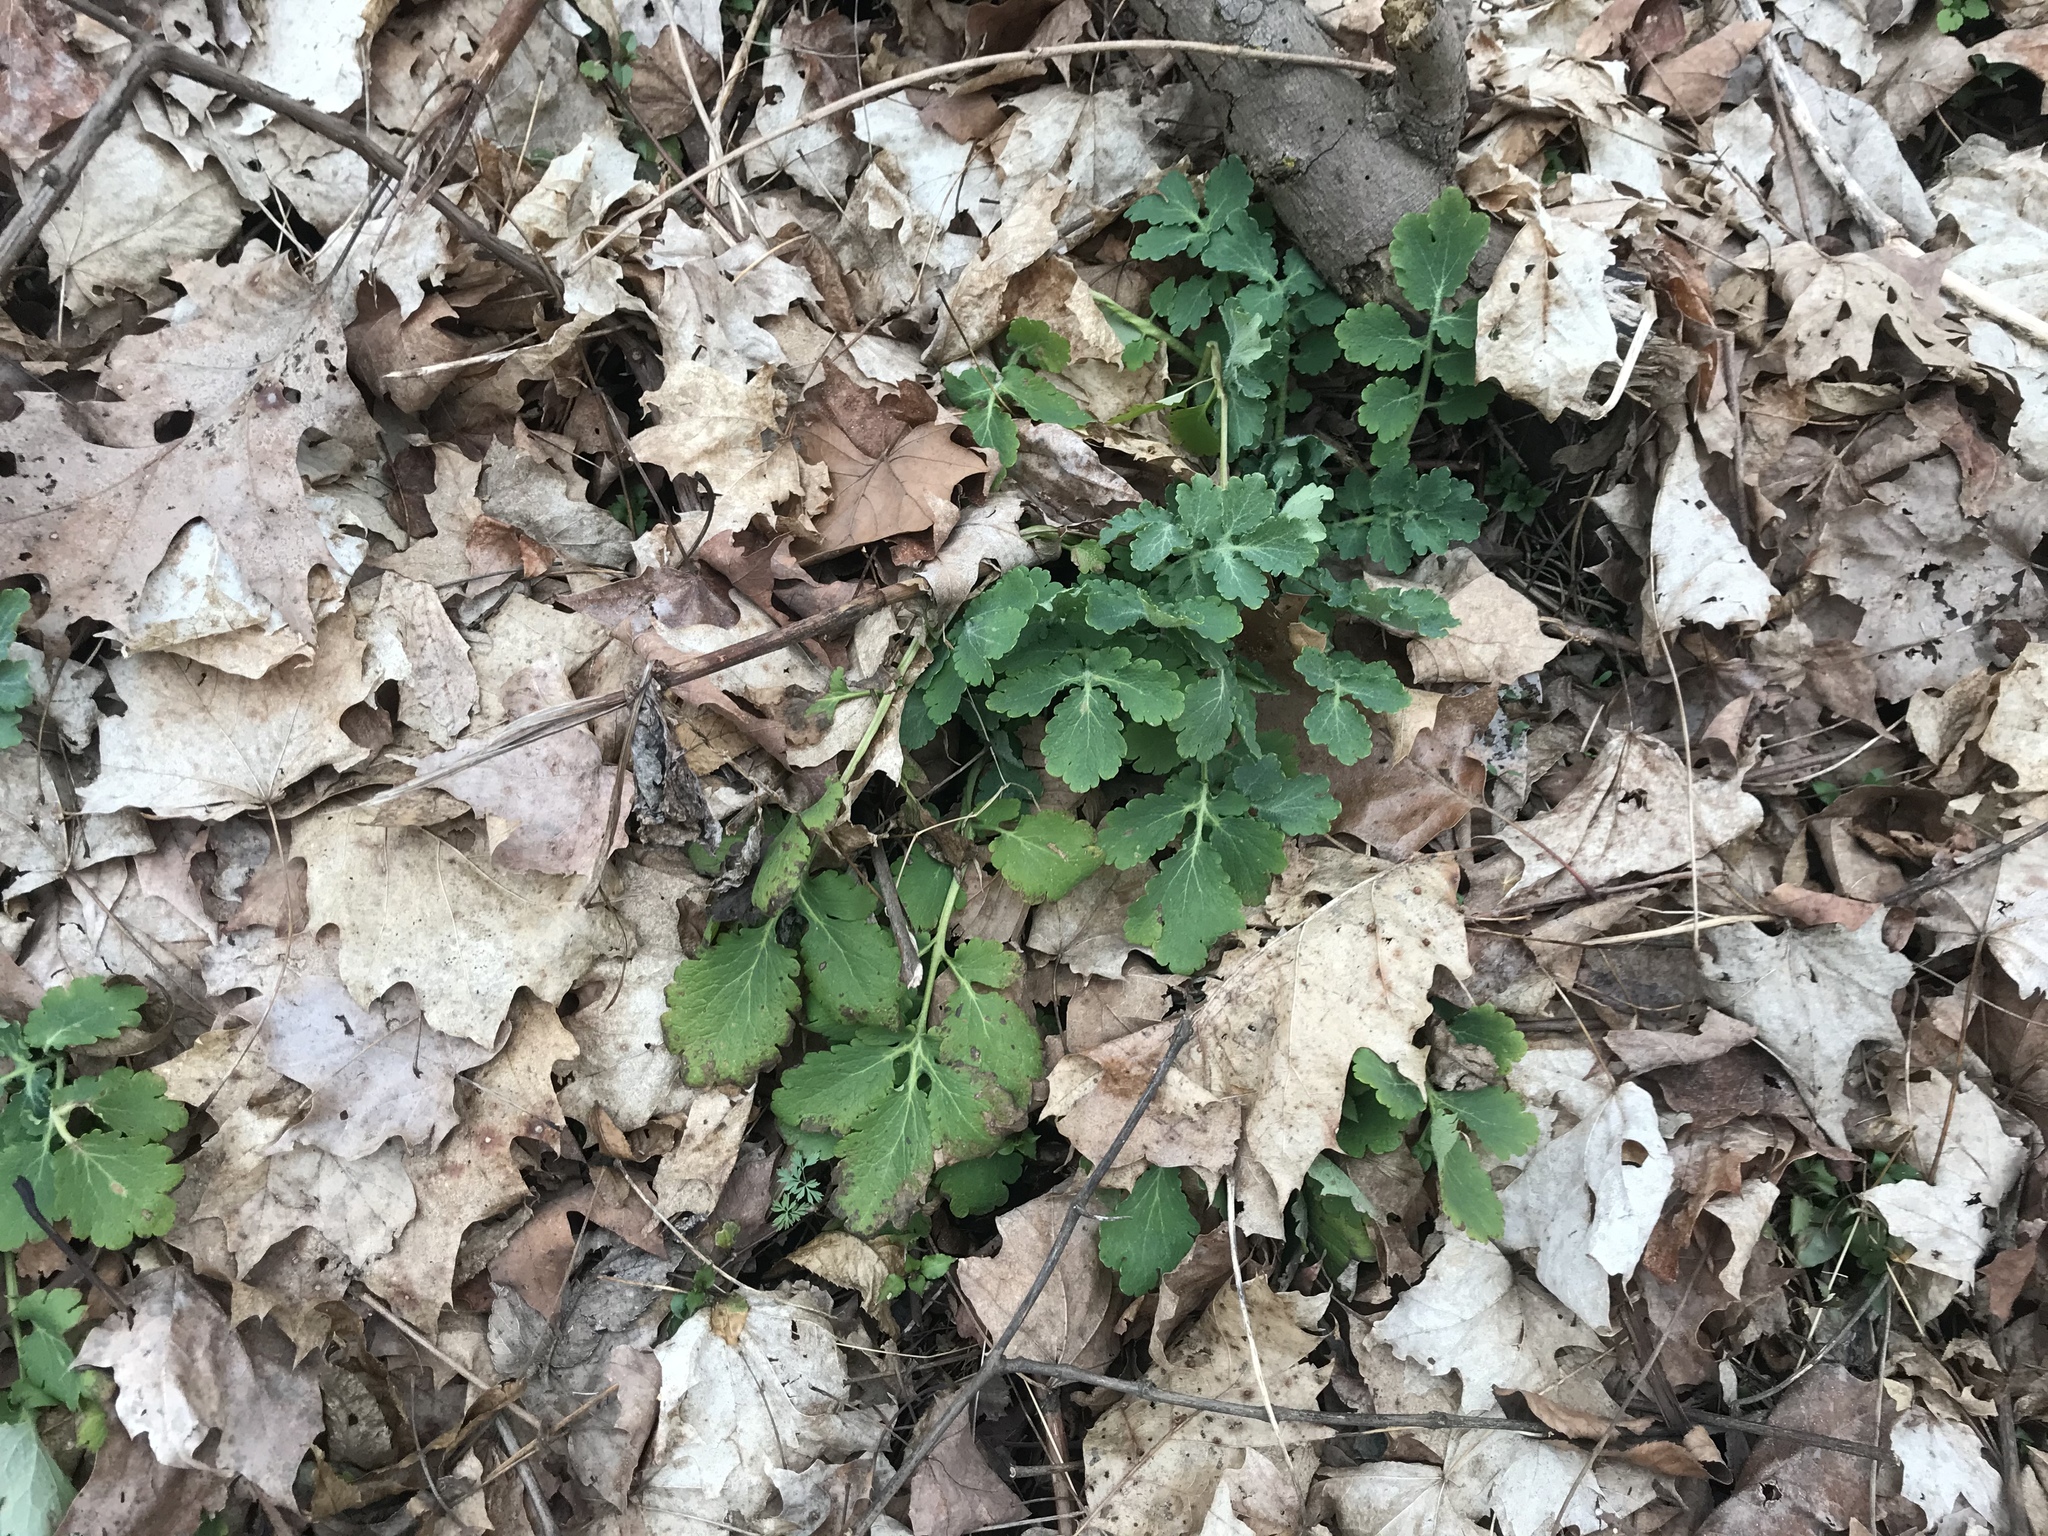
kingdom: Plantae
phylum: Tracheophyta
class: Magnoliopsida
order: Ranunculales
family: Papaveraceae
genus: Chelidonium
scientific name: Chelidonium majus
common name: Greater celandine
